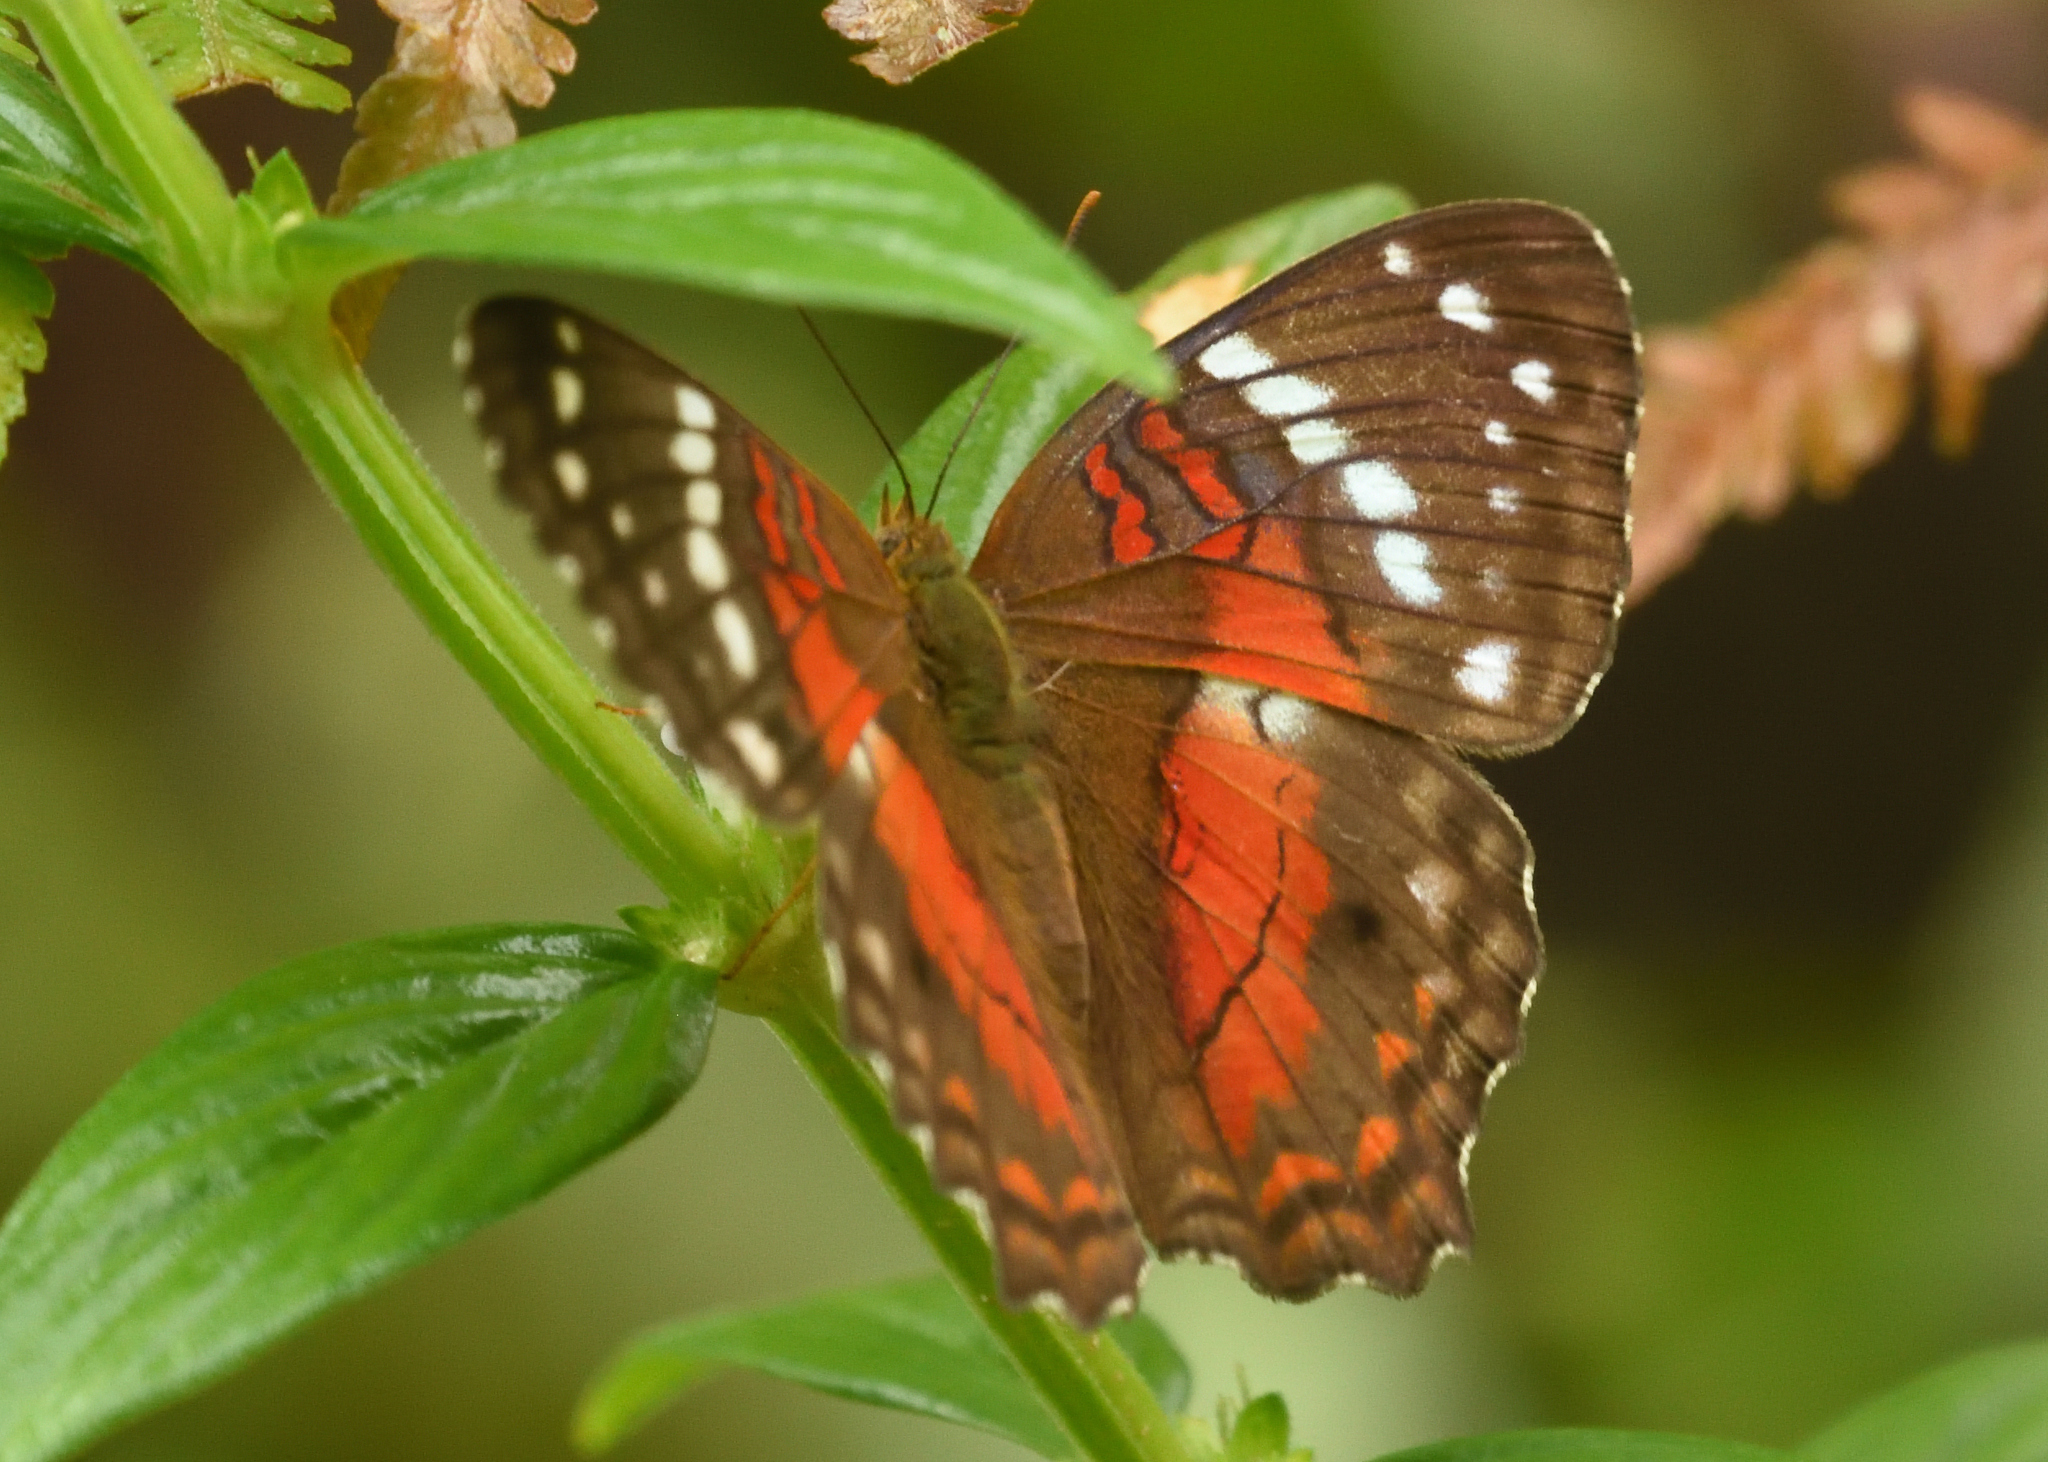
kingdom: Animalia
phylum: Arthropoda
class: Insecta
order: Lepidoptera
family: Nymphalidae
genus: Anartia
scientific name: Anartia amathea
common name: Red peacock
